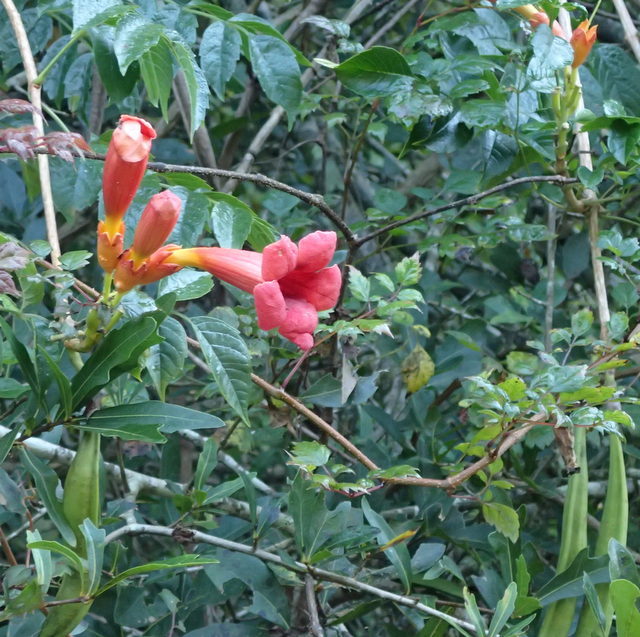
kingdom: Plantae
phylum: Tracheophyta
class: Magnoliopsida
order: Lamiales
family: Bignoniaceae
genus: Campsis
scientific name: Campsis radicans
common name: Trumpet-creeper
